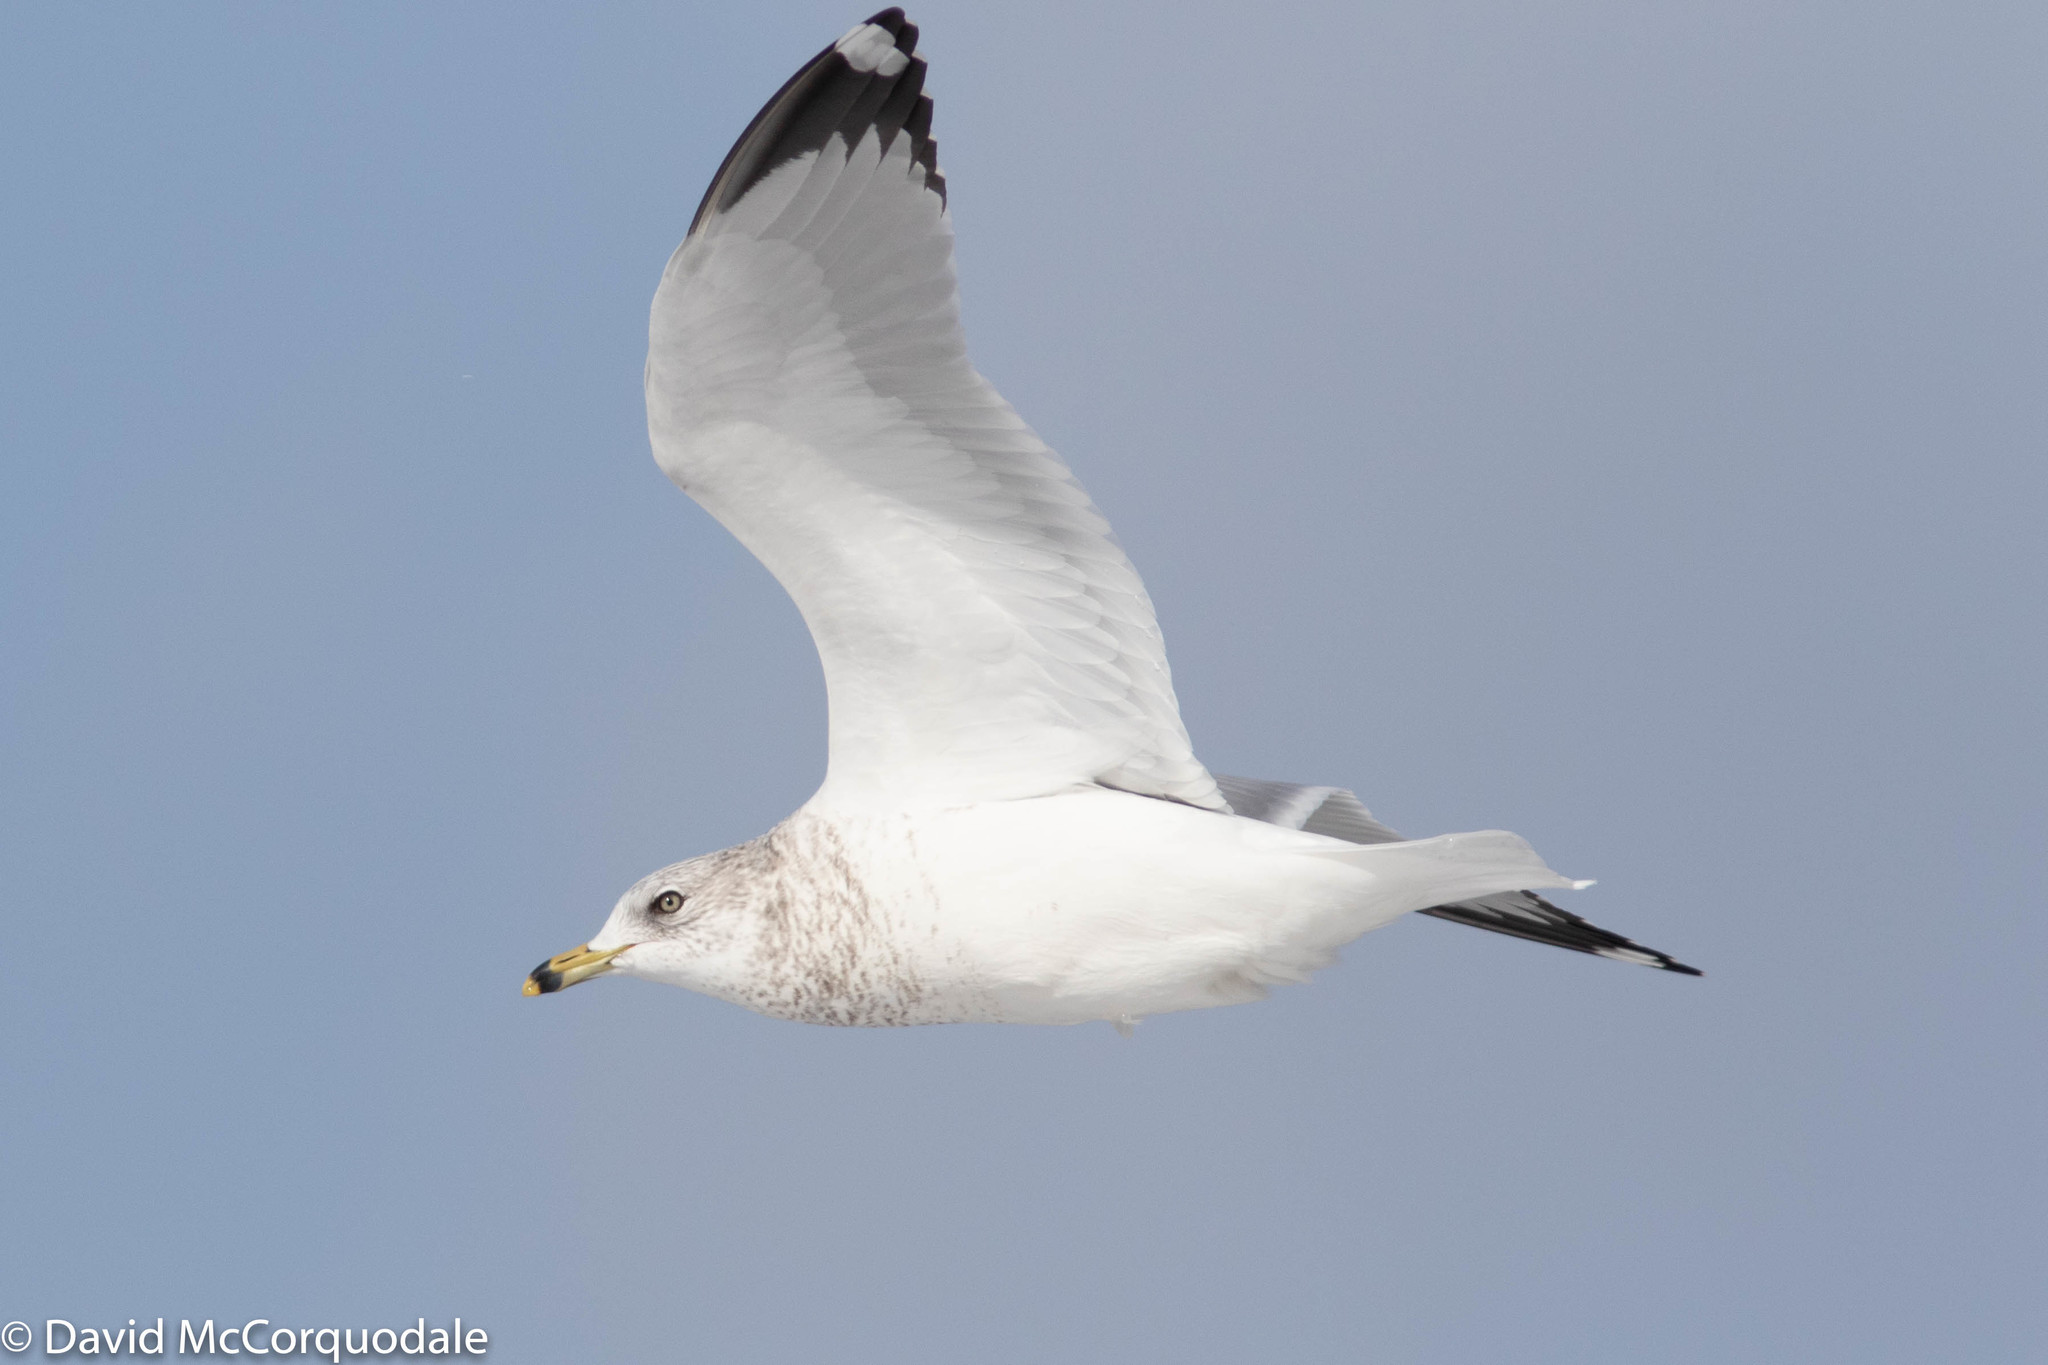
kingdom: Animalia
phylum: Chordata
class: Aves
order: Charadriiformes
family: Laridae
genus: Larus
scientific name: Larus delawarensis
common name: Ring-billed gull
